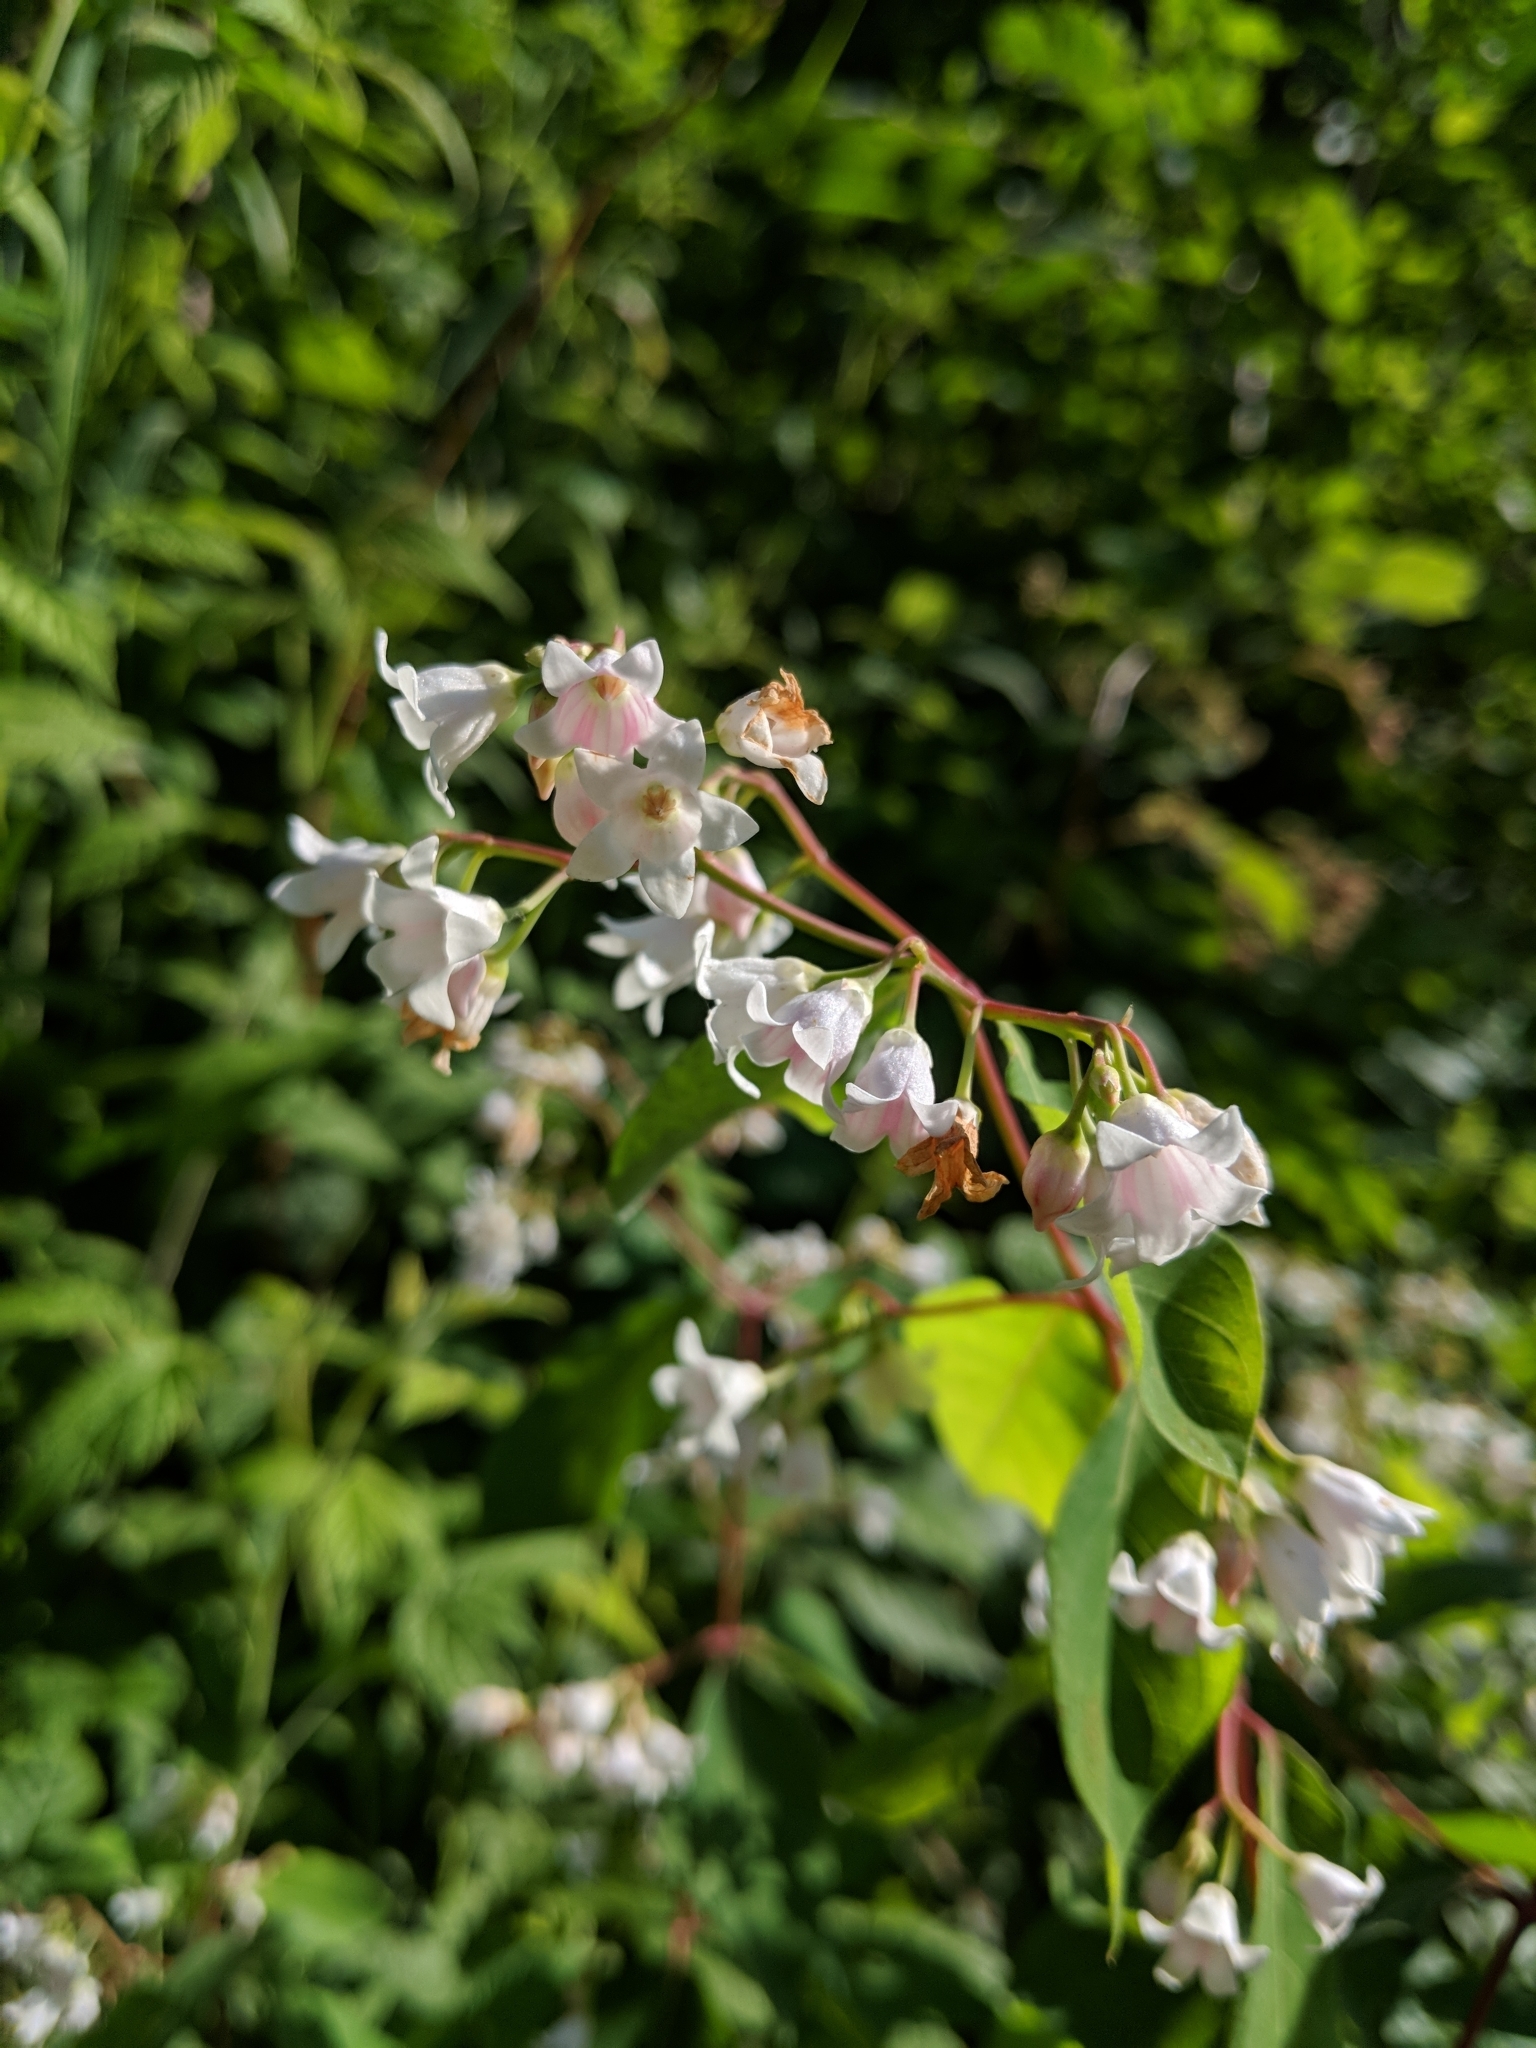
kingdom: Plantae
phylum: Tracheophyta
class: Magnoliopsida
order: Gentianales
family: Apocynaceae
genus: Apocynum
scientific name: Apocynum androsaemifolium
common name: Spreading dogbane
